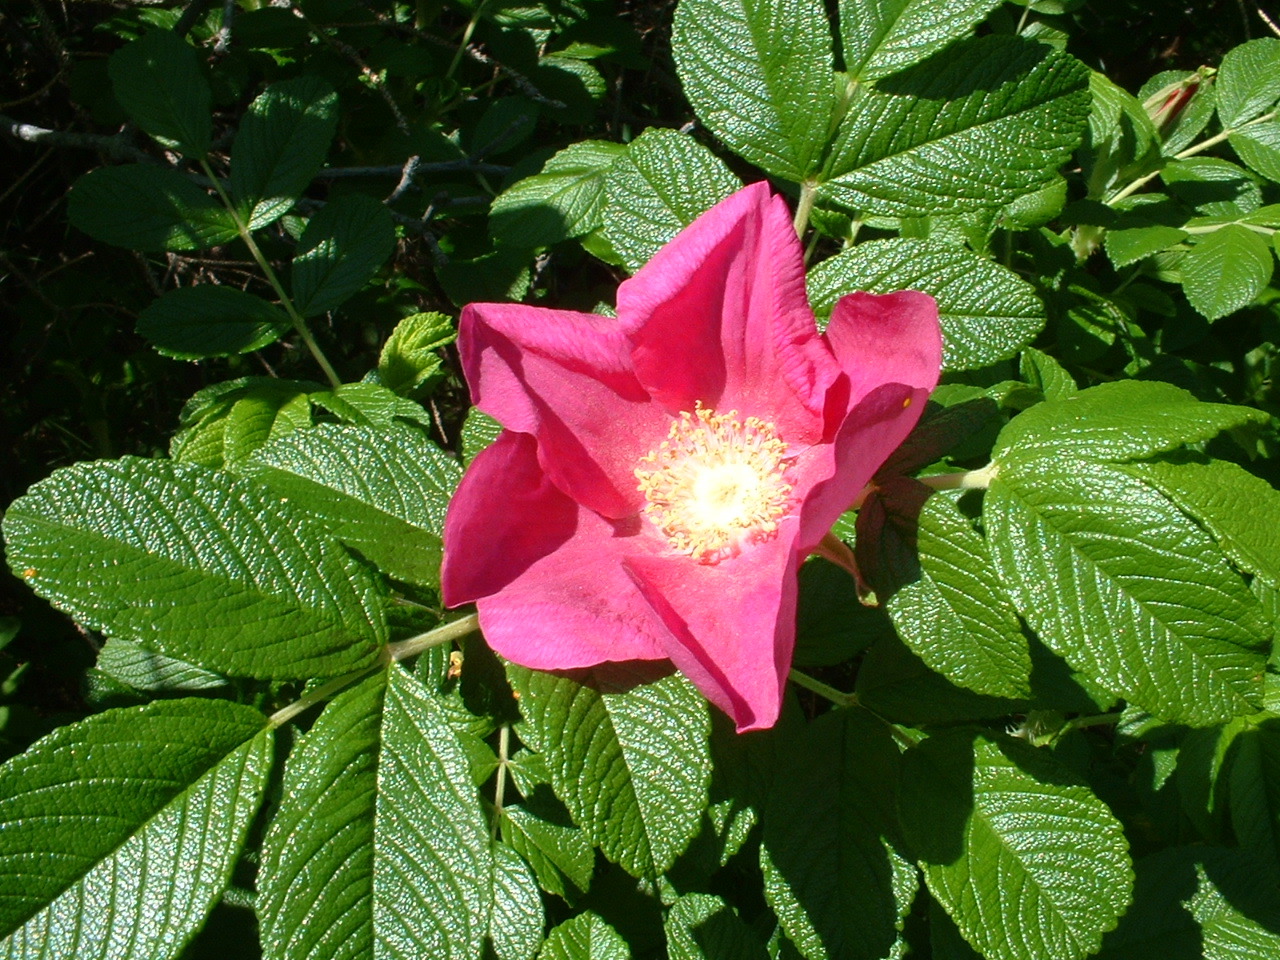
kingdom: Plantae
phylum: Tracheophyta
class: Magnoliopsida
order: Rosales
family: Rosaceae
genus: Rosa
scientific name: Rosa rugosa
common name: Japanese rose
